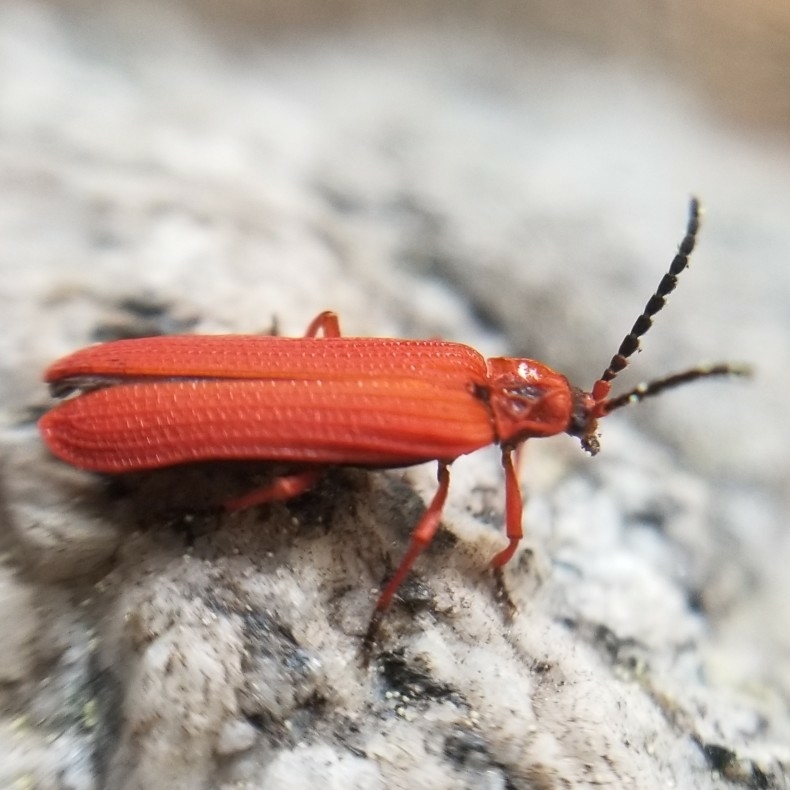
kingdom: Animalia
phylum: Arthropoda
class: Insecta
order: Coleoptera
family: Lycidae
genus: Dictyoptera
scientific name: Dictyoptera simplicipes
